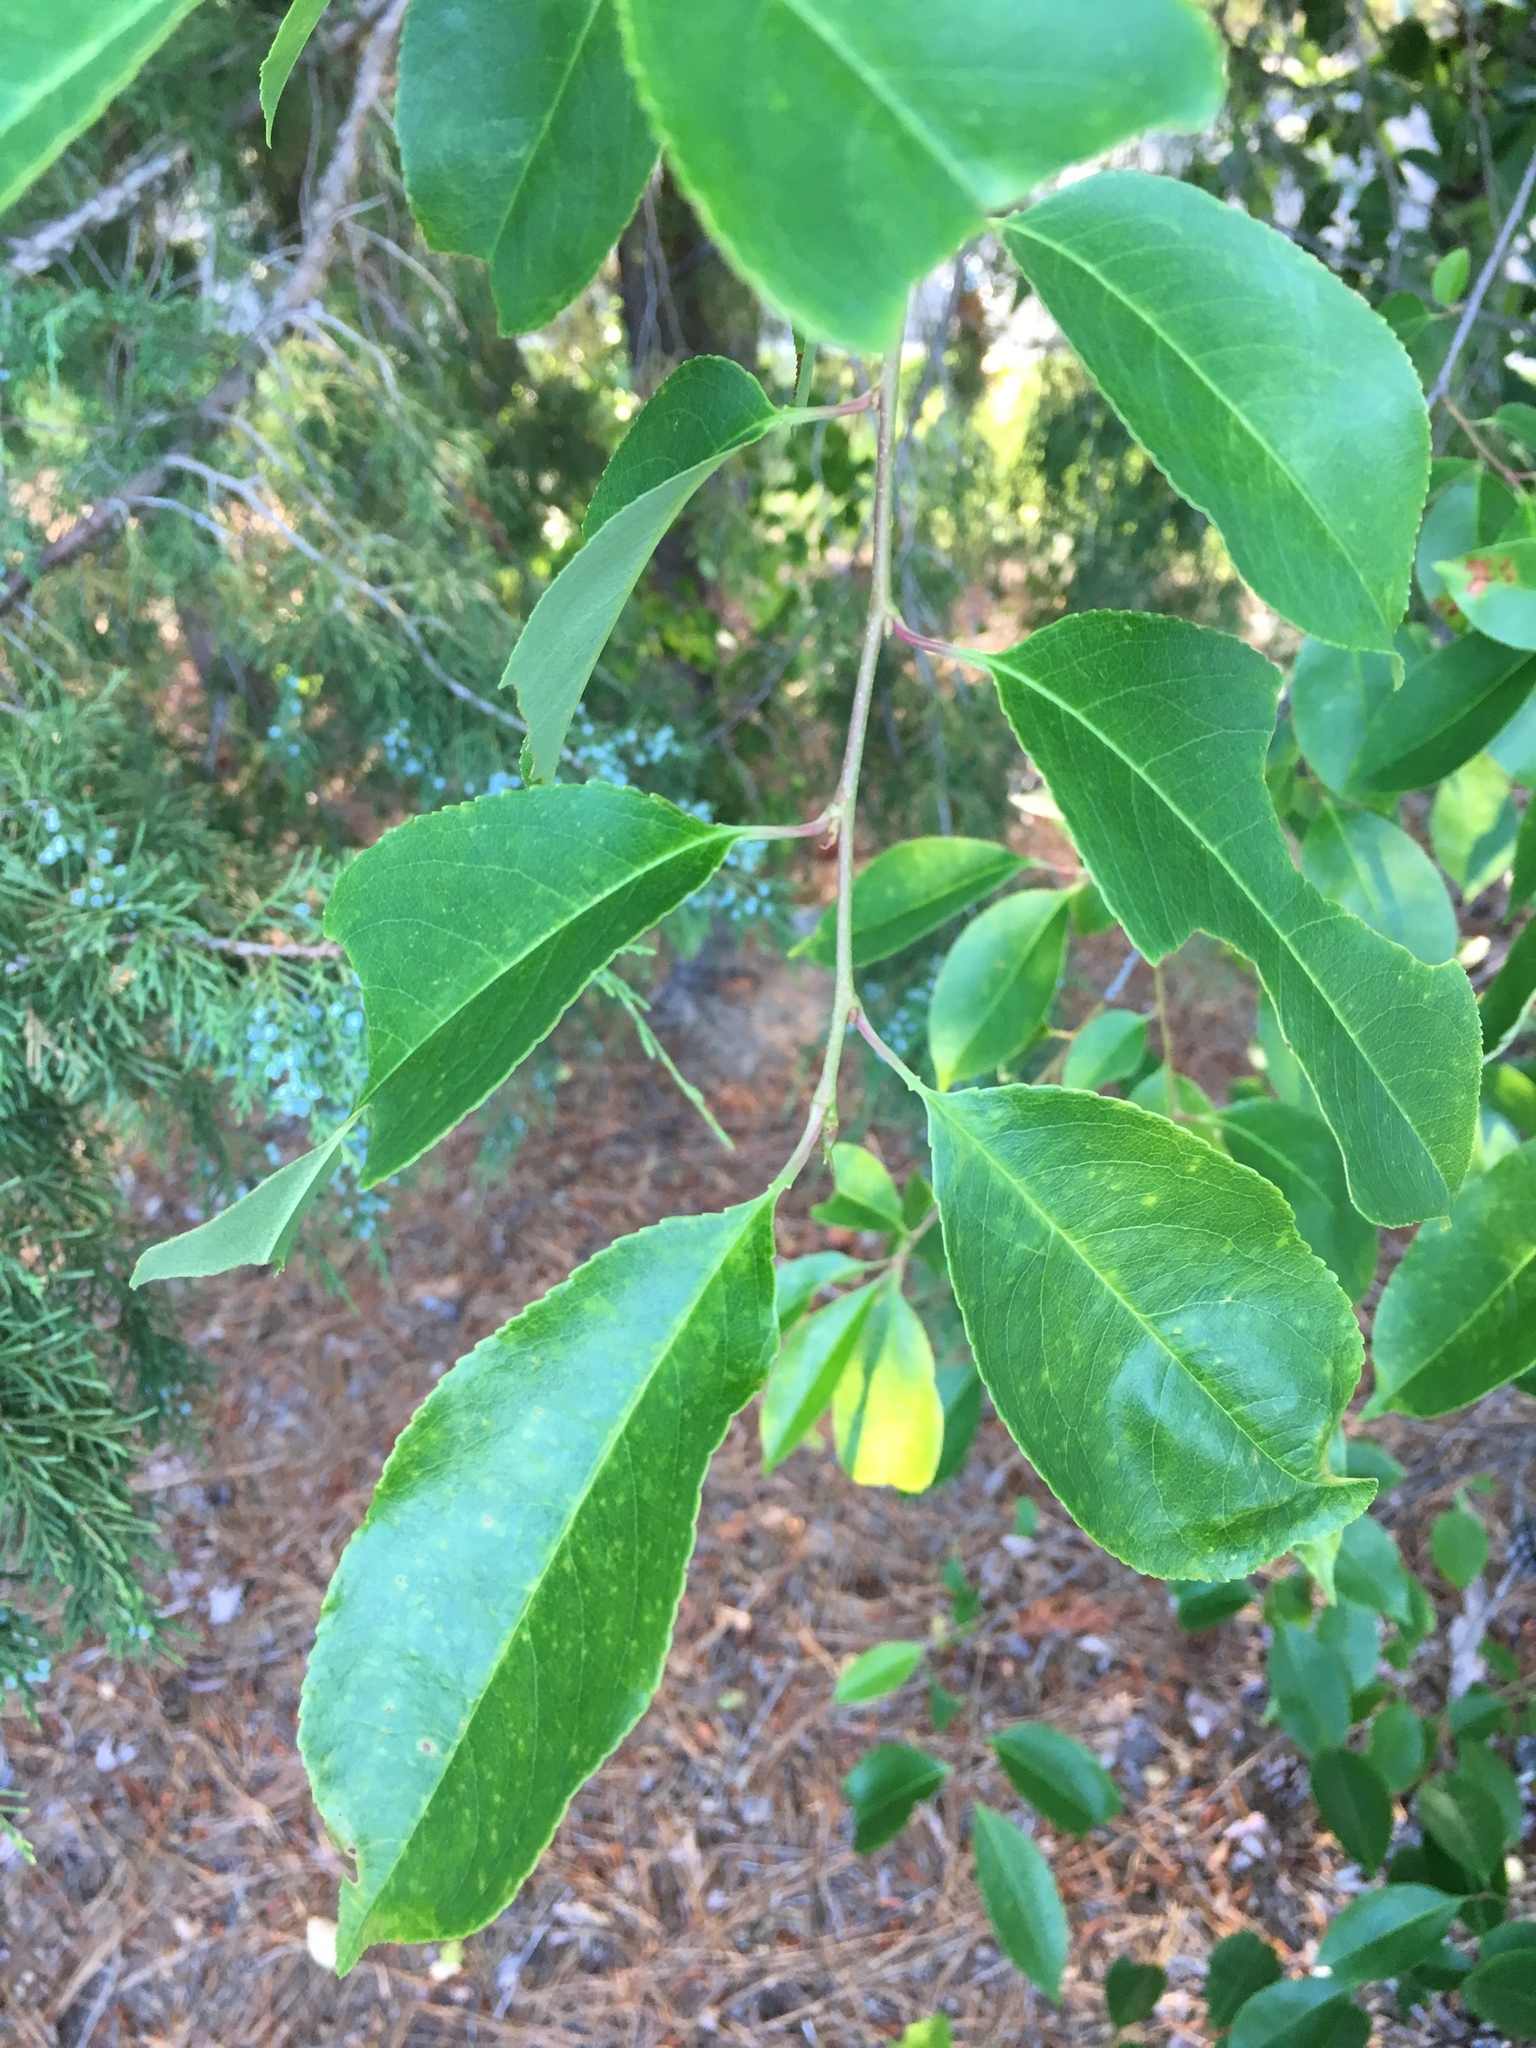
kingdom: Plantae
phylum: Tracheophyta
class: Magnoliopsida
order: Rosales
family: Rosaceae
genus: Prunus
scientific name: Prunus serotina
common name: Black cherry
